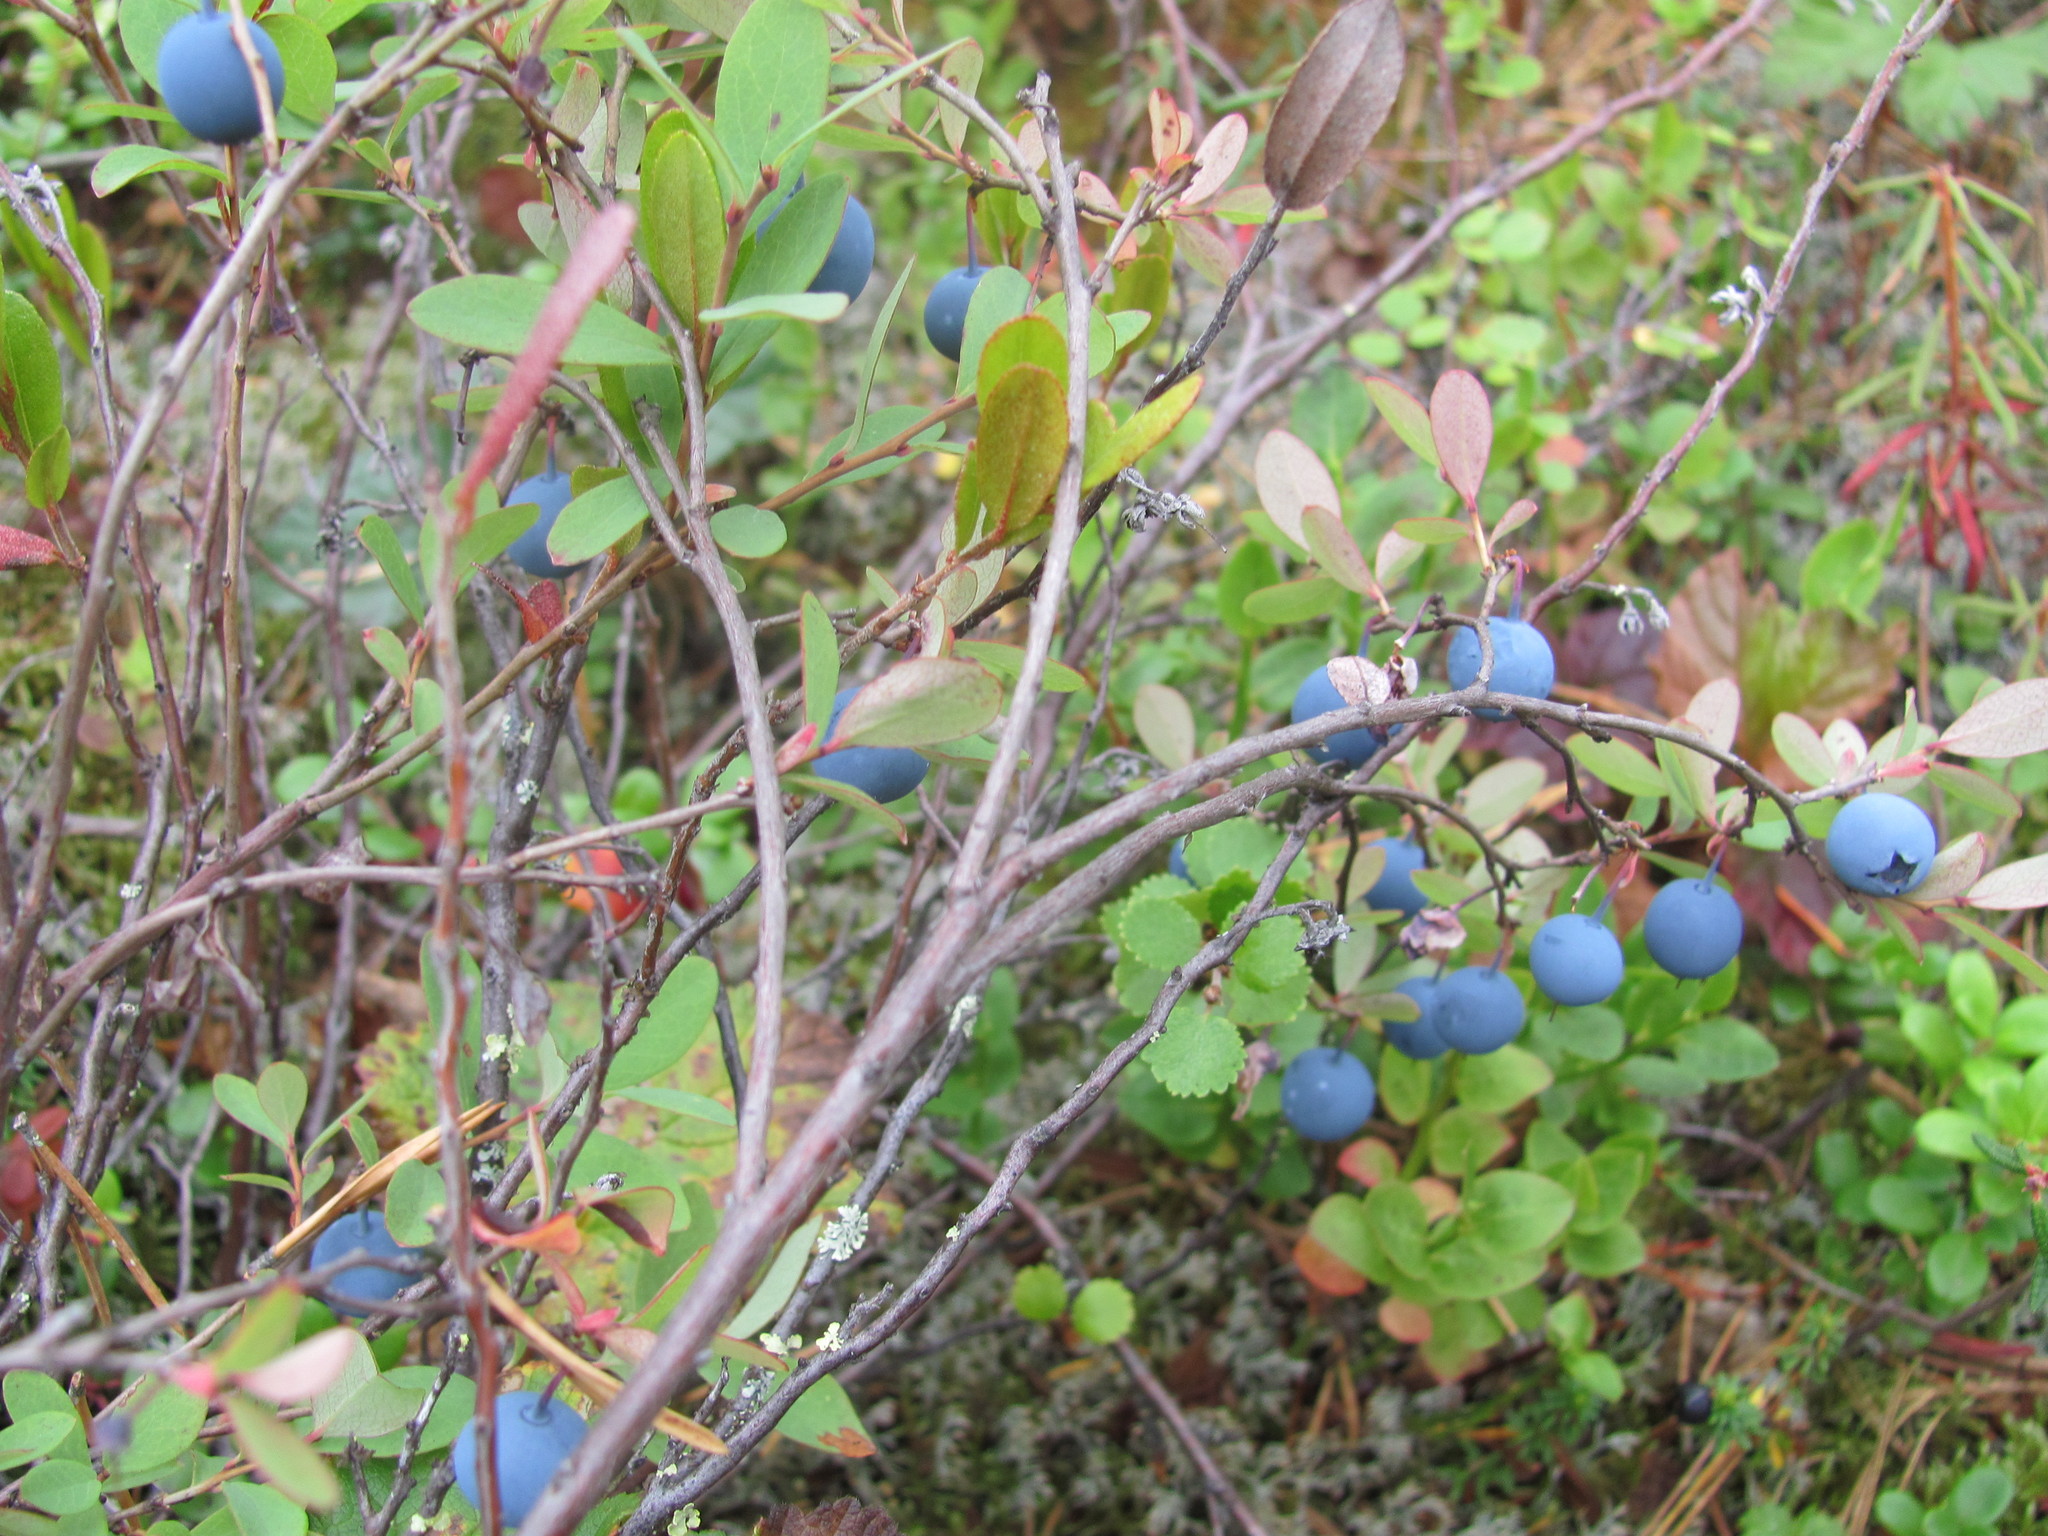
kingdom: Plantae
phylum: Tracheophyta
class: Magnoliopsida
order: Ericales
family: Ericaceae
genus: Vaccinium
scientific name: Vaccinium uliginosum
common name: Bog bilberry
